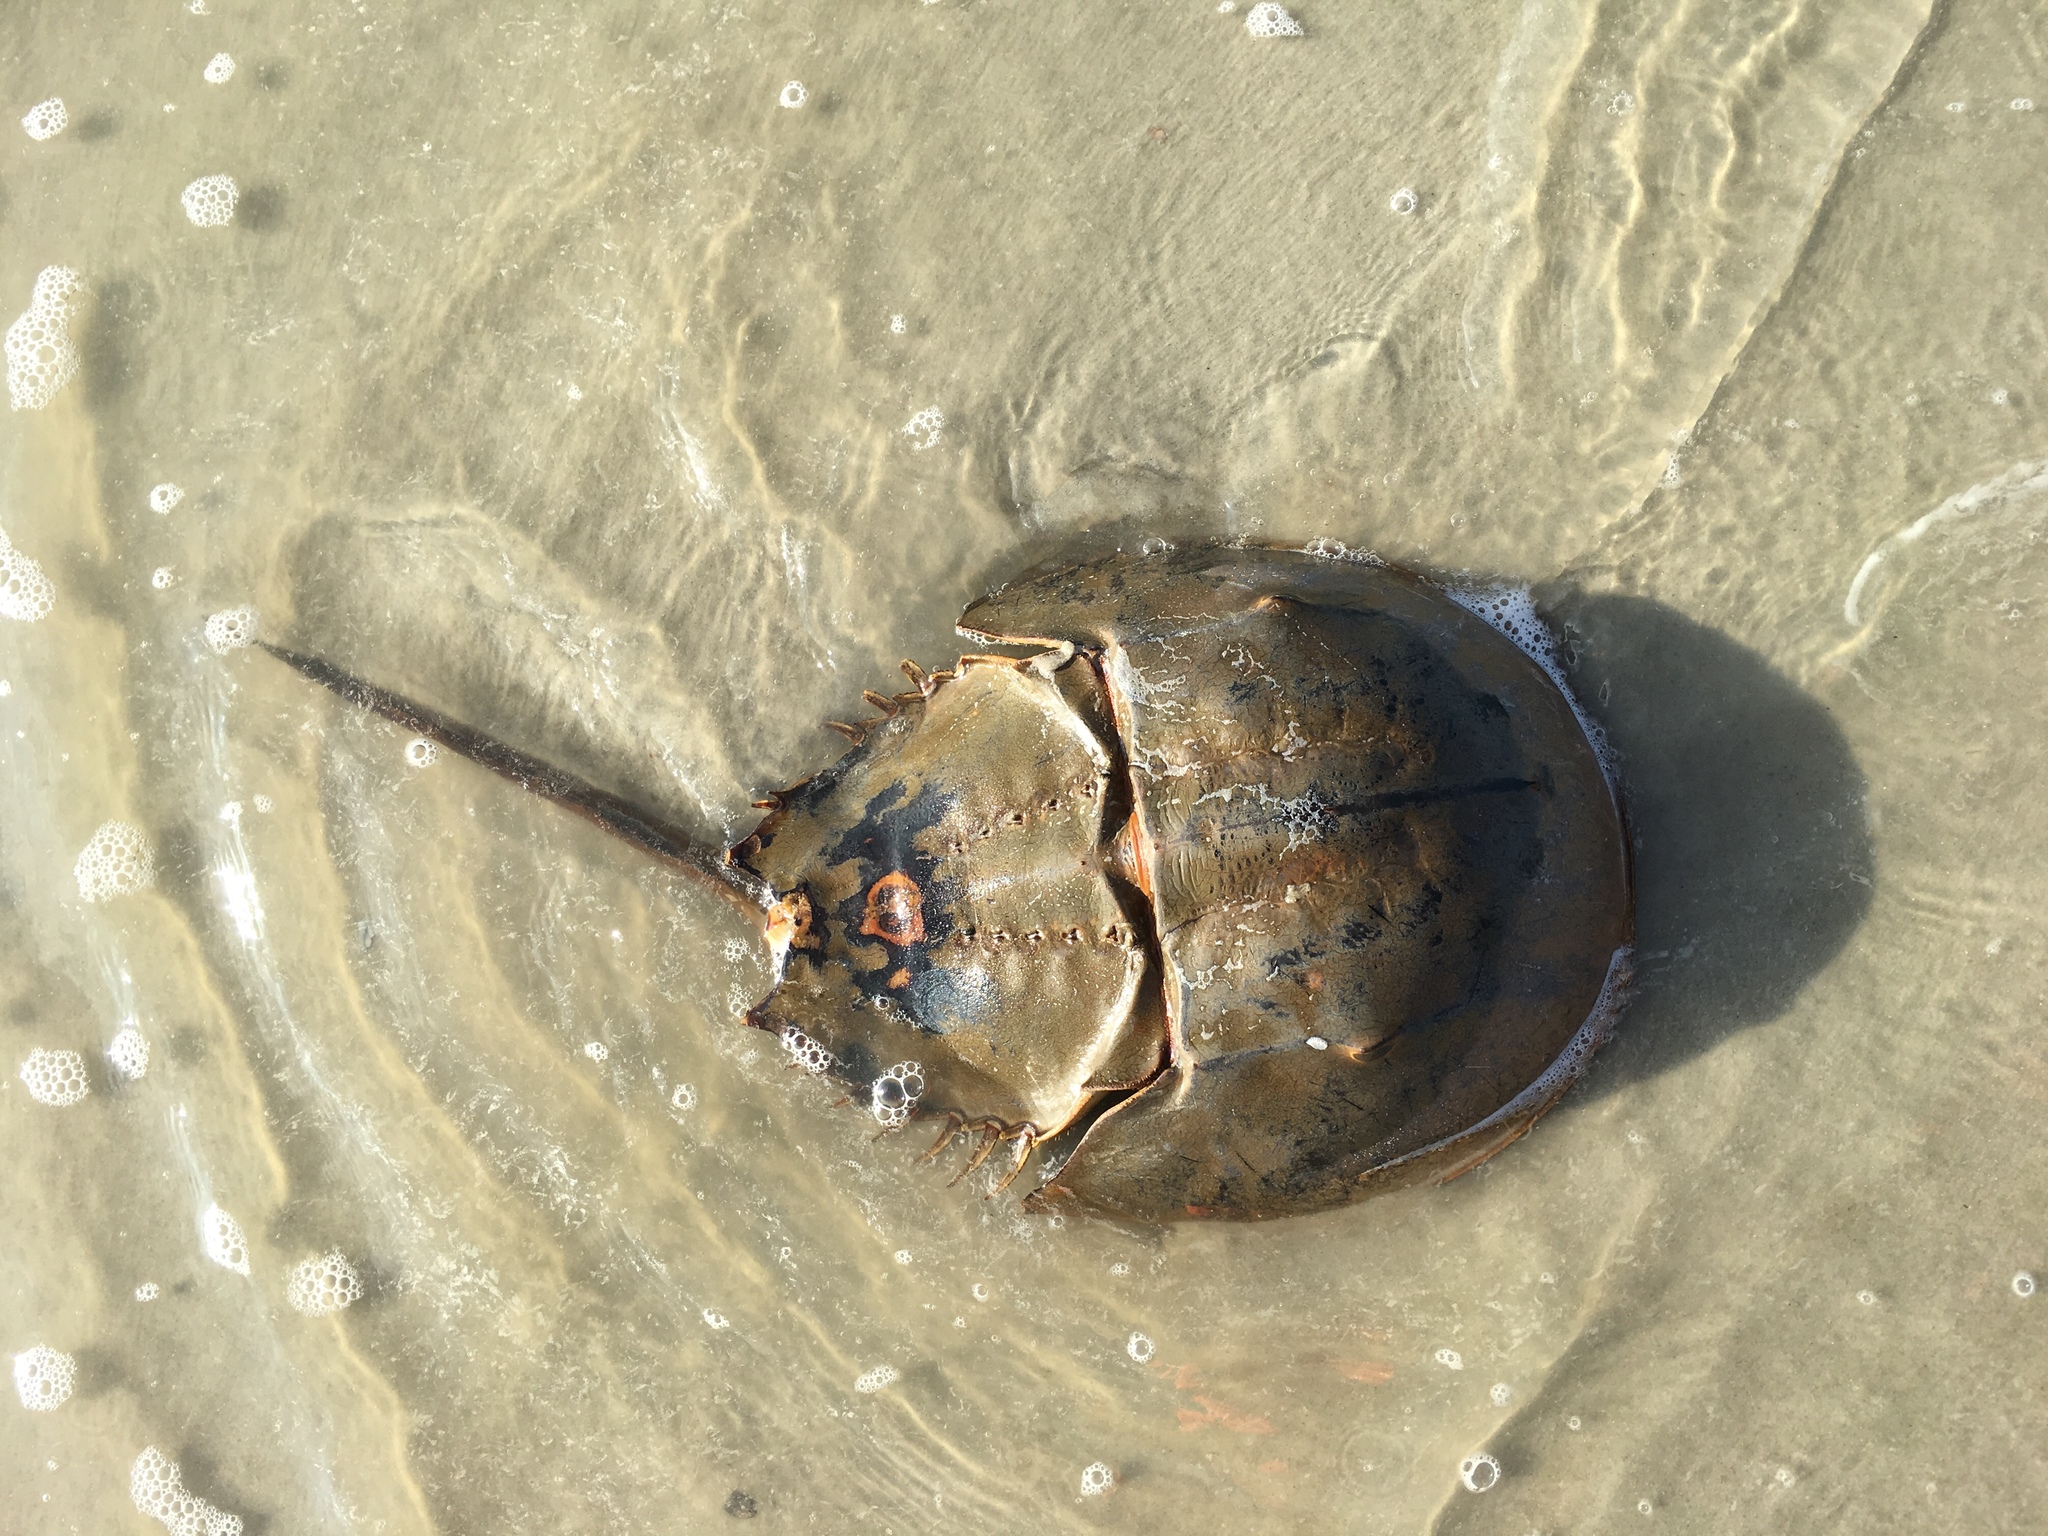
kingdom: Animalia
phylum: Arthropoda
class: Merostomata
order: Xiphosurida
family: Limulidae
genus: Limulus
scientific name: Limulus polyphemus
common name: Horseshoe crab
